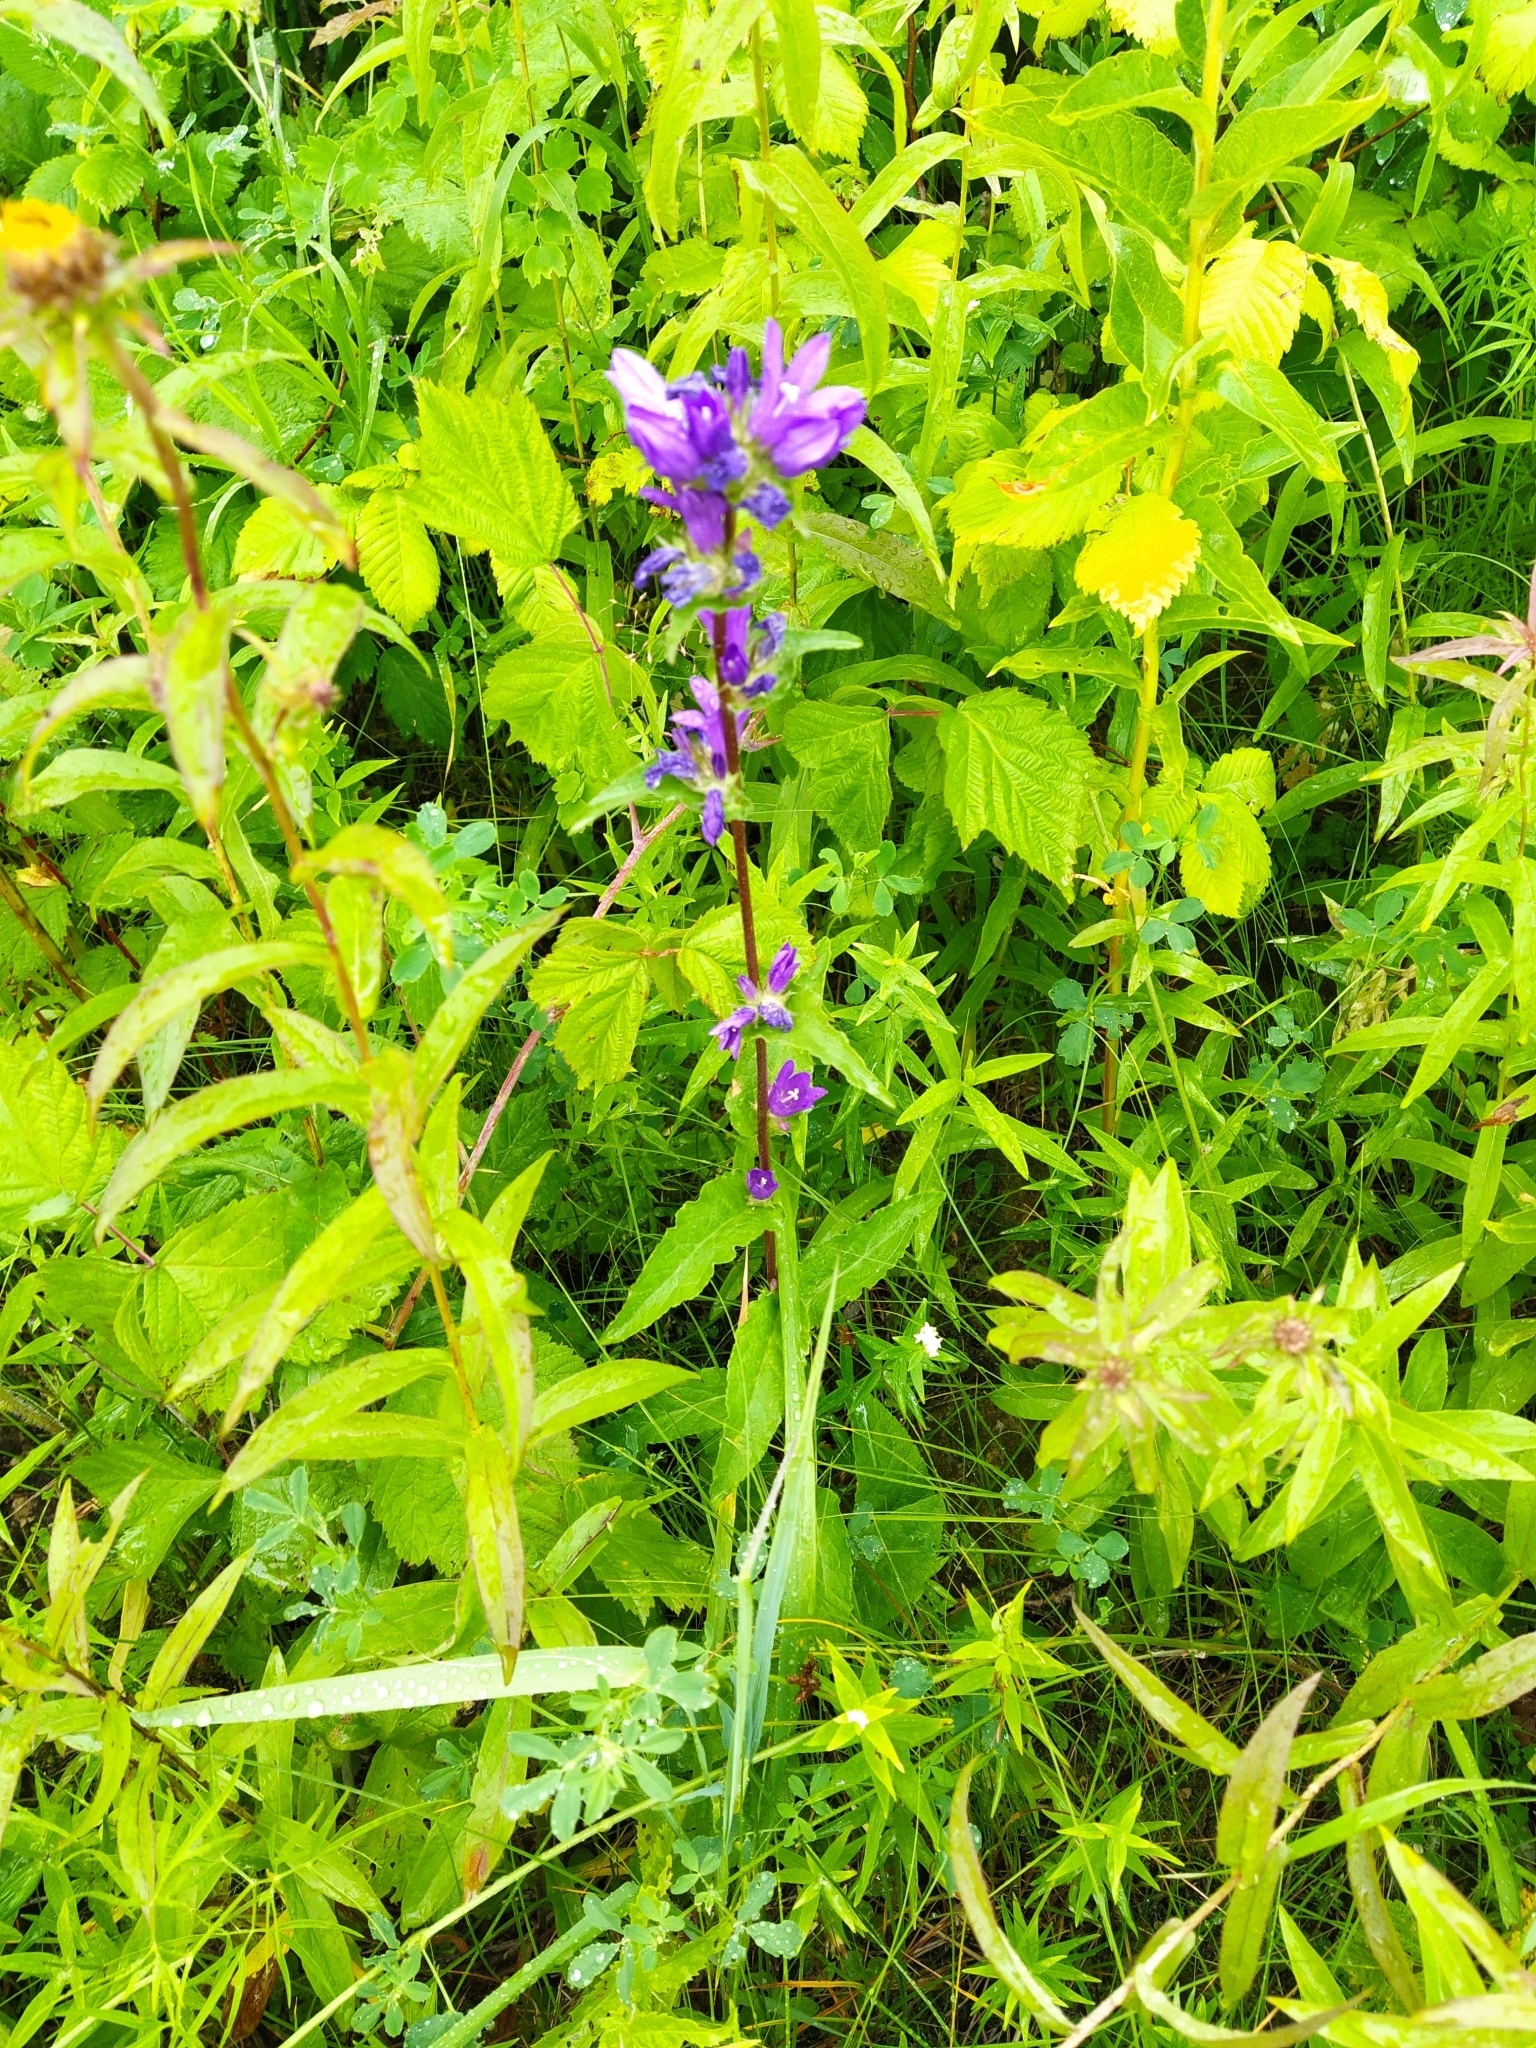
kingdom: Plantae
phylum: Tracheophyta
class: Magnoliopsida
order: Asterales
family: Campanulaceae
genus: Campanula
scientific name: Campanula glomerata
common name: Clustered bellflower
